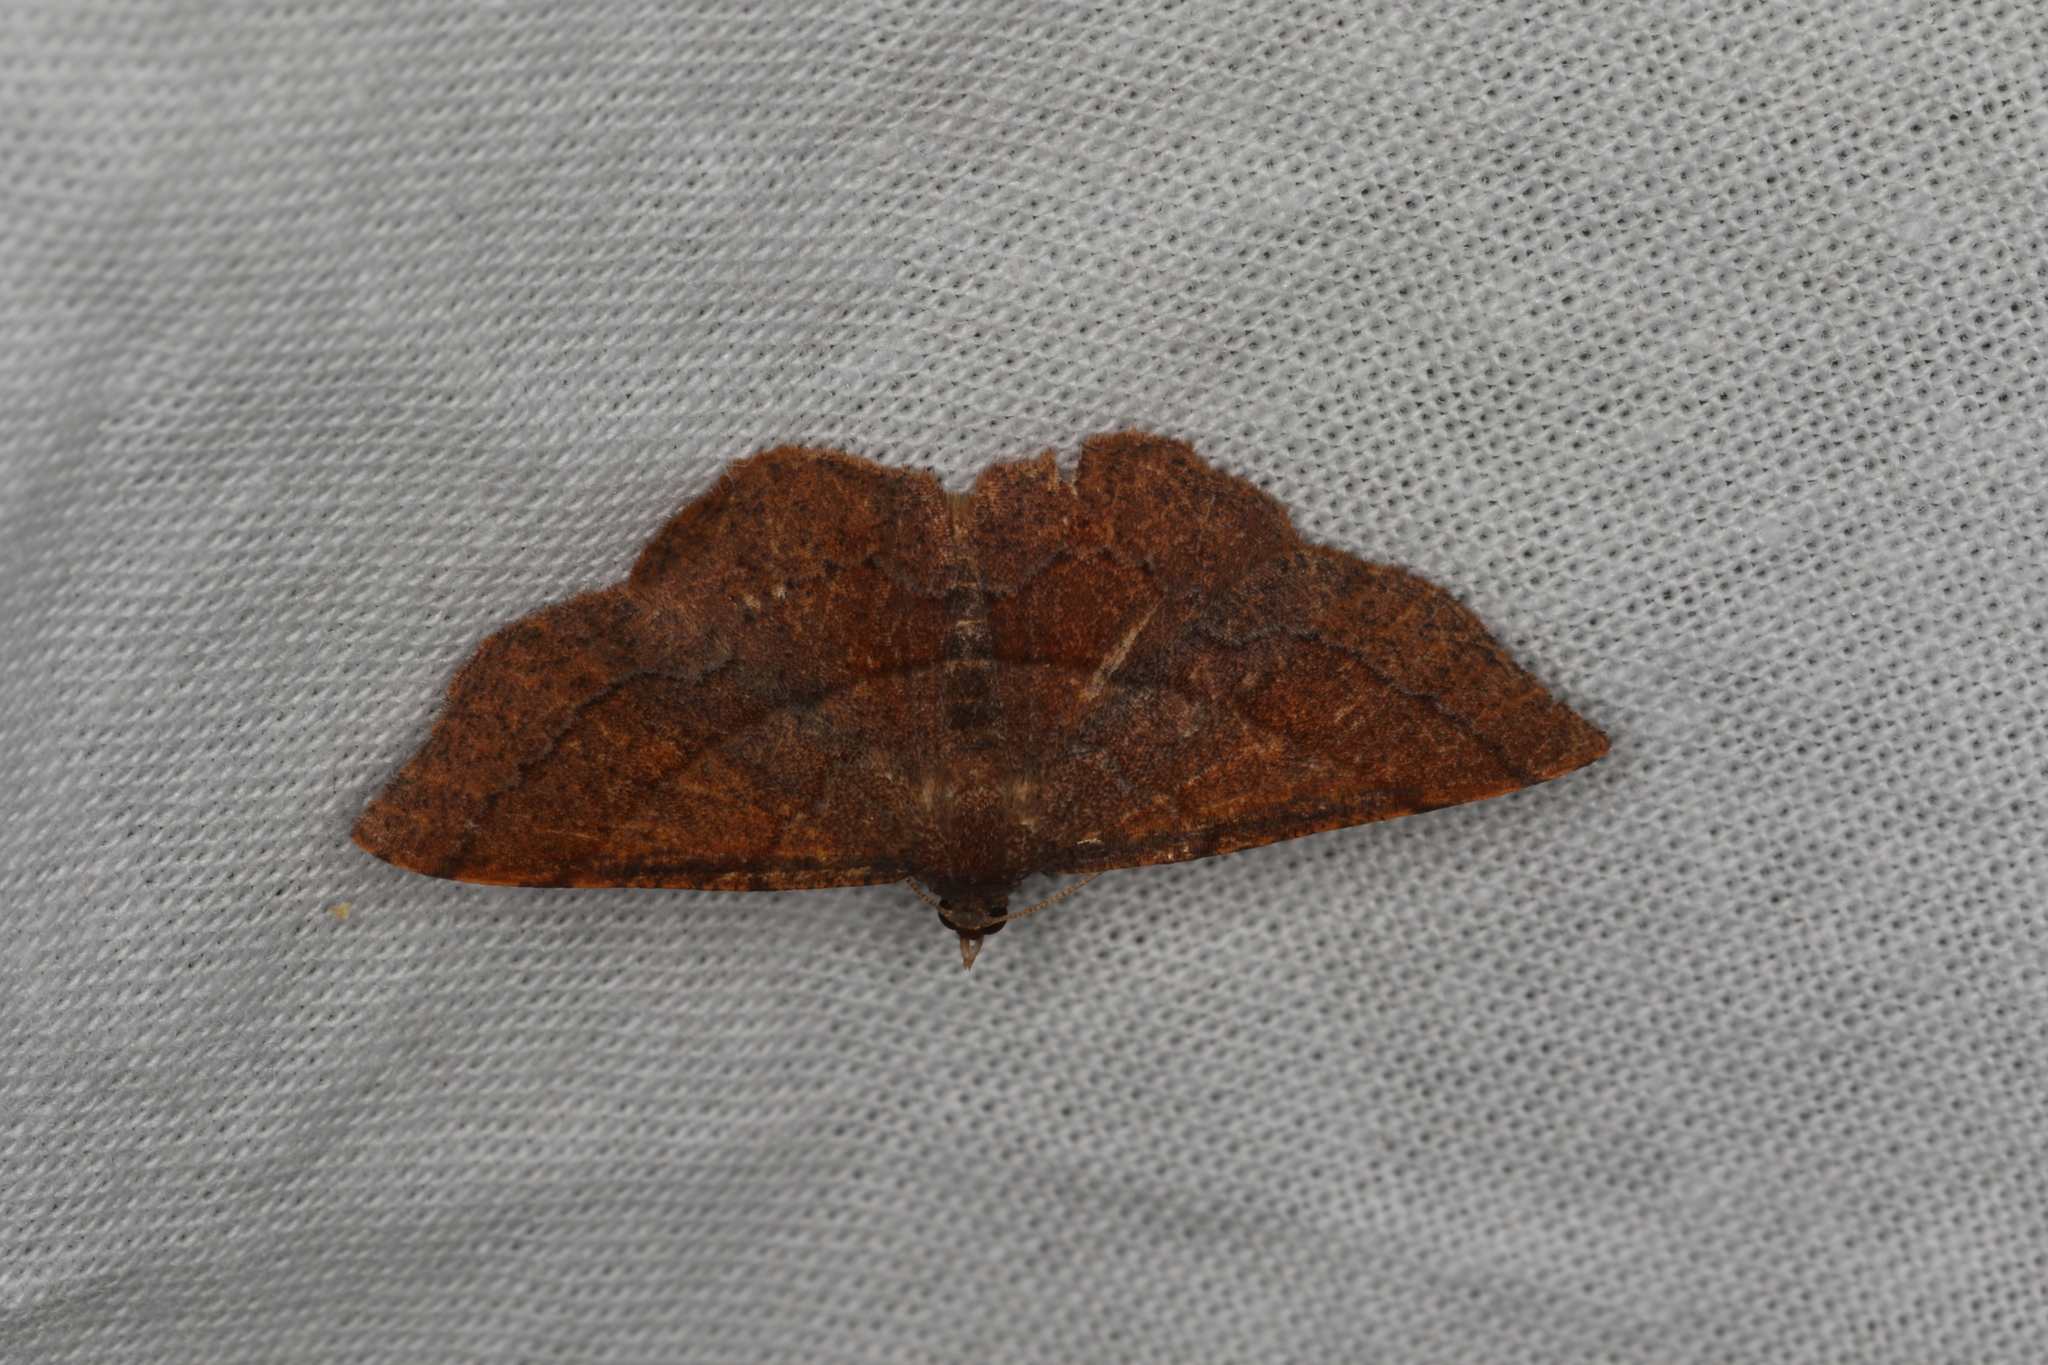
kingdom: Animalia
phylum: Arthropoda
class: Insecta
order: Lepidoptera
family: Geometridae
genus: Urostola
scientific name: Urostola magica
